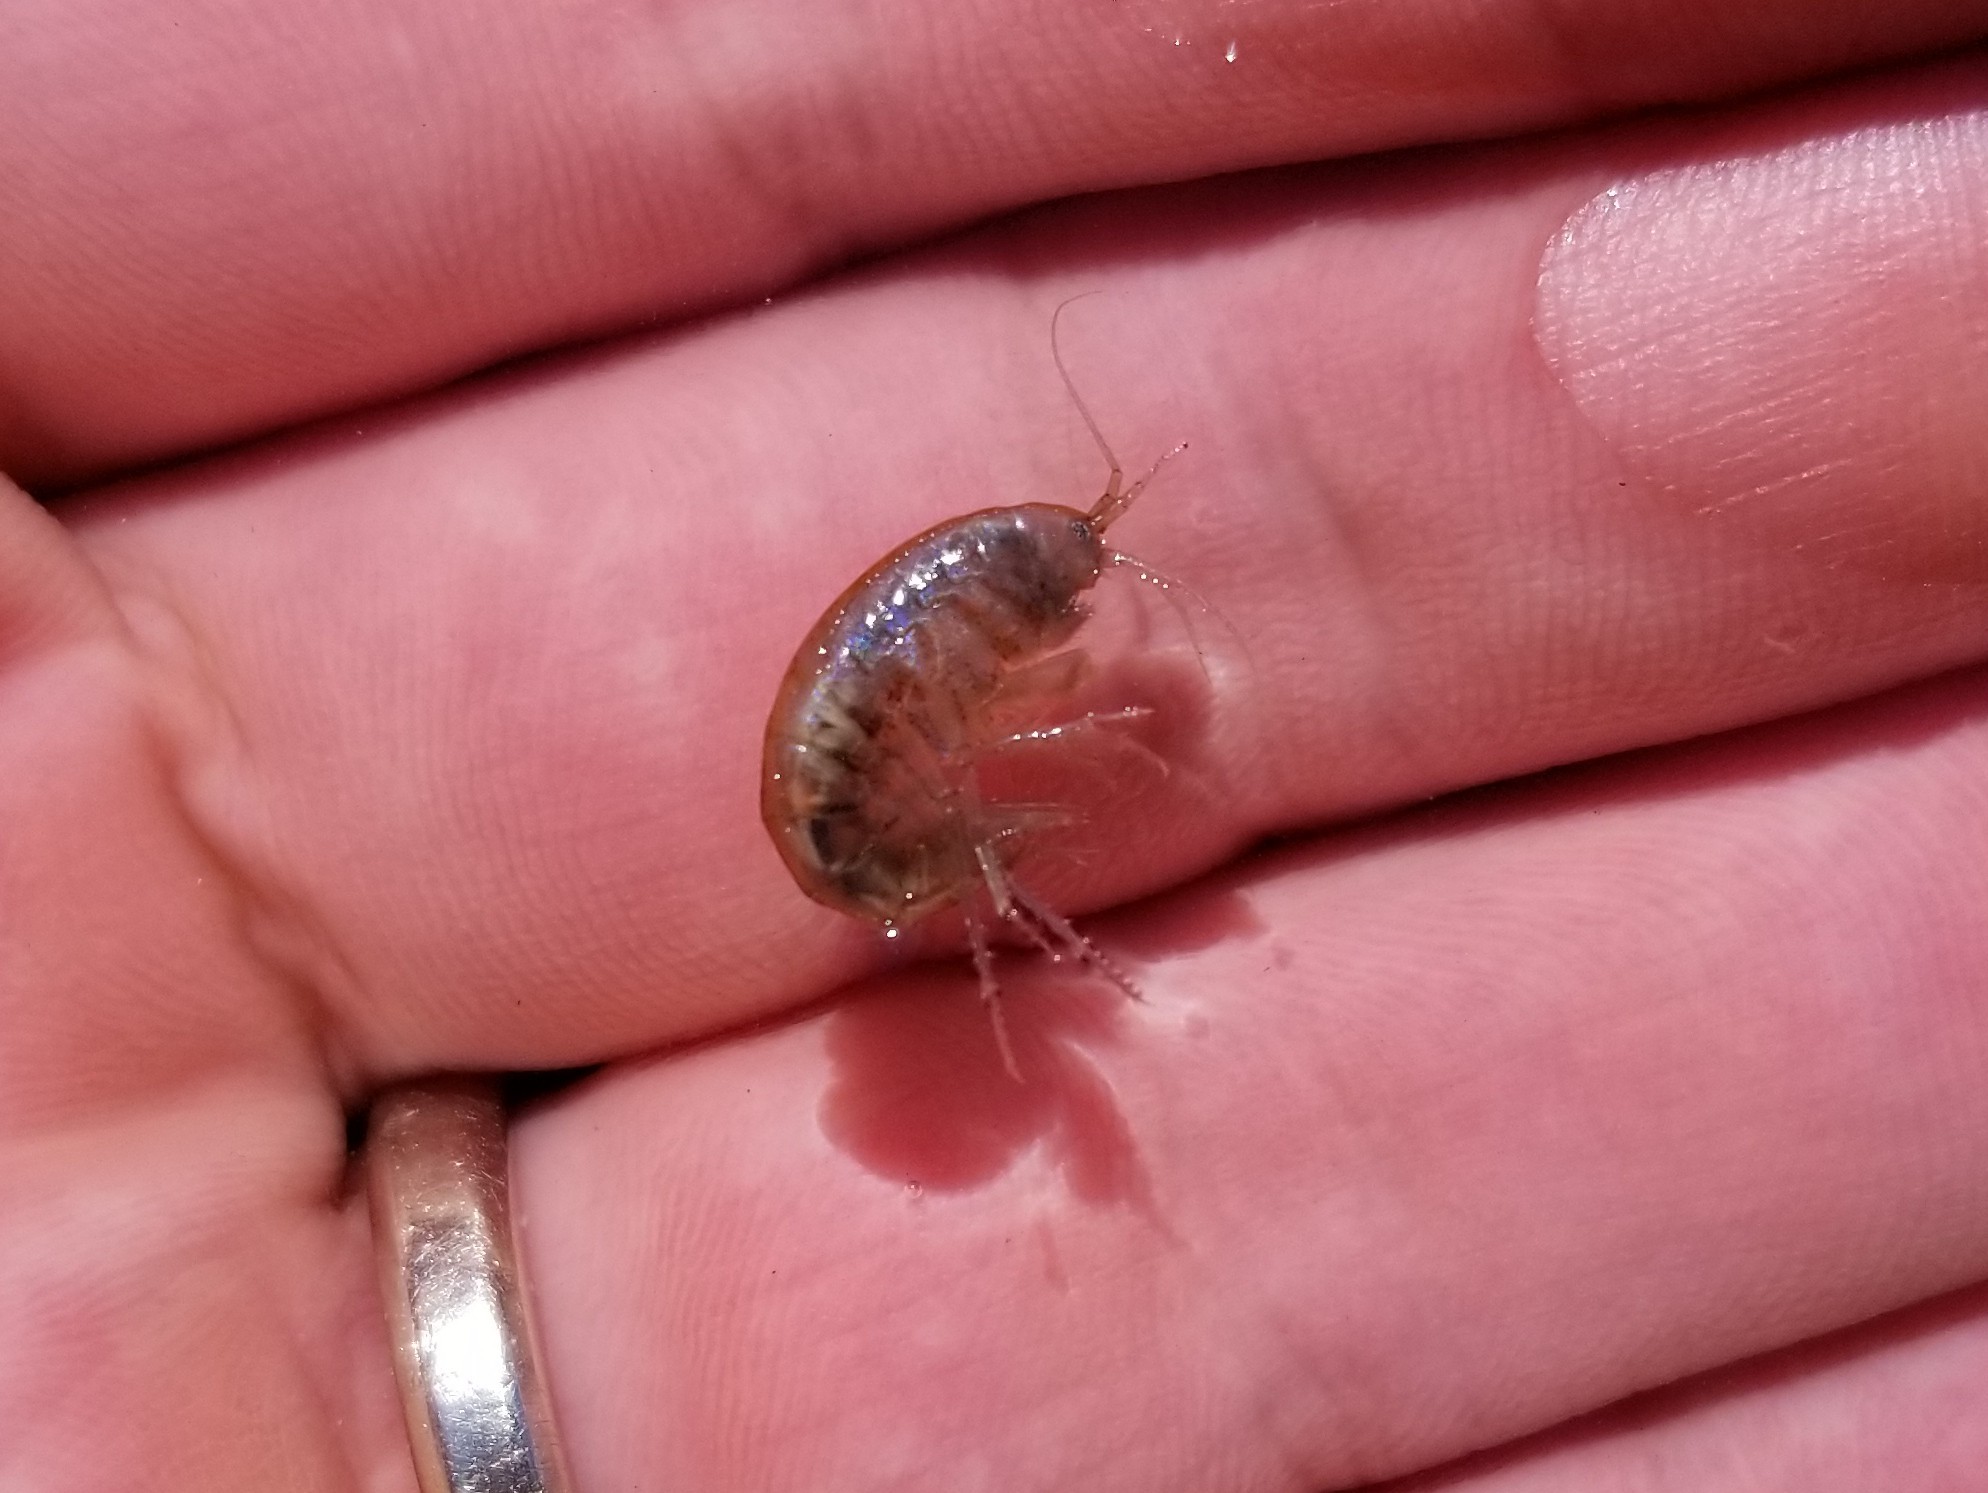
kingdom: Animalia
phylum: Arthropoda
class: Malacostraca
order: Amphipoda
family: Gammaridae
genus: Gammarus
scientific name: Gammarus lacustris
